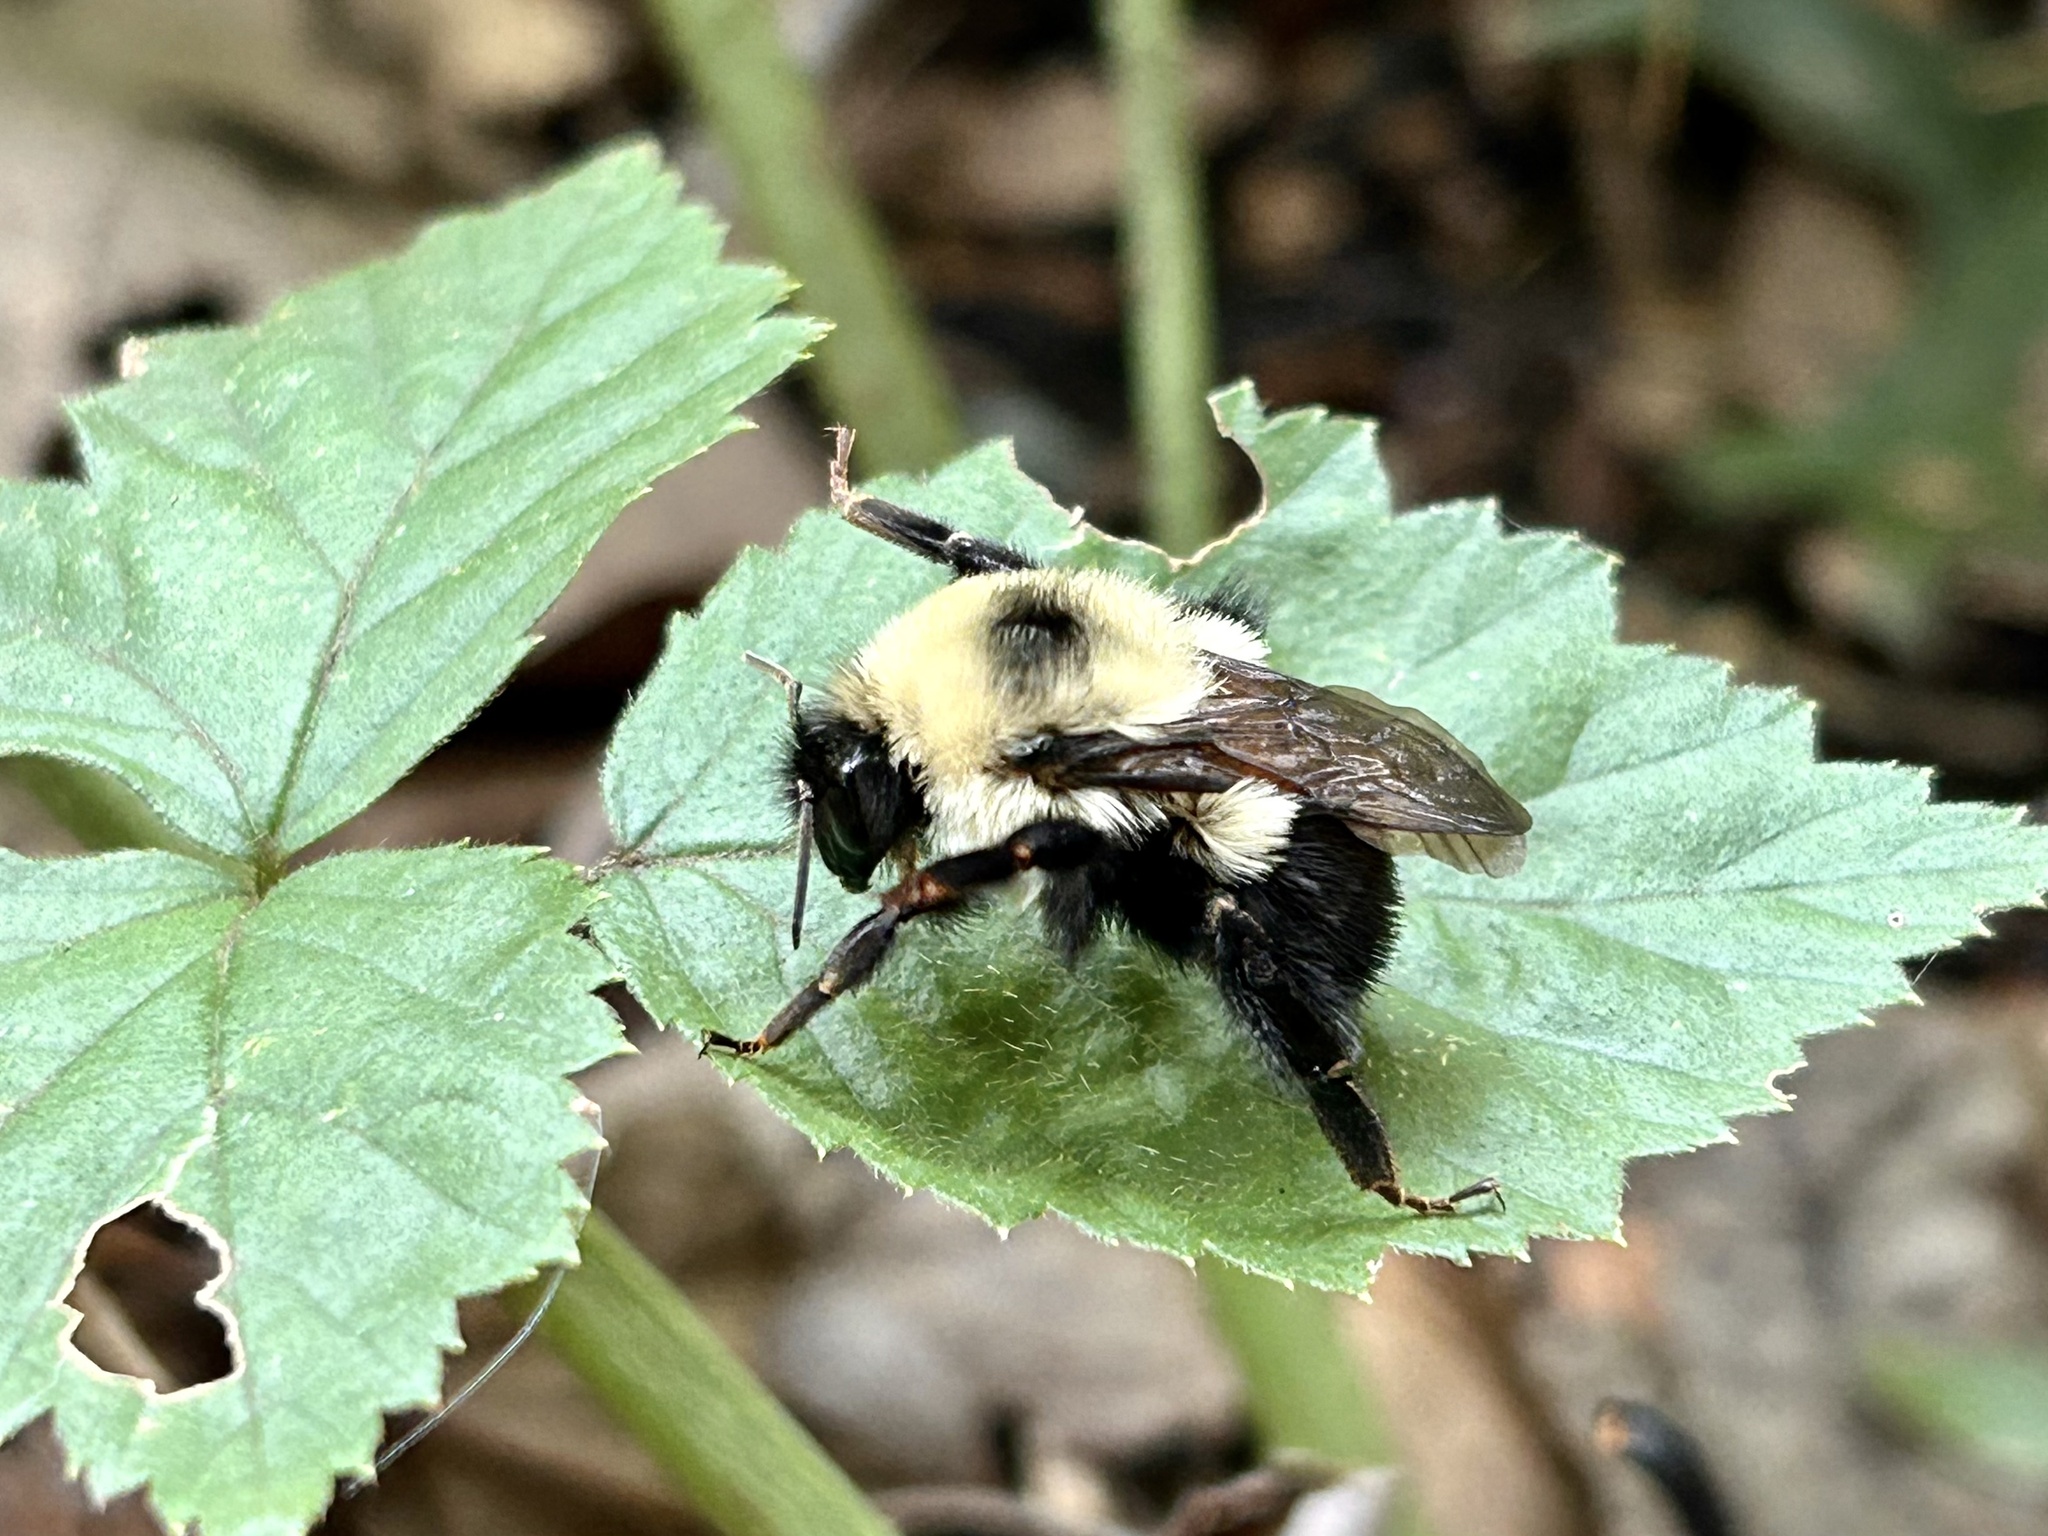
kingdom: Animalia
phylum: Arthropoda
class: Insecta
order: Hymenoptera
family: Apidae
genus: Bombus
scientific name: Bombus bimaculatus
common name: Two-spotted bumble bee
